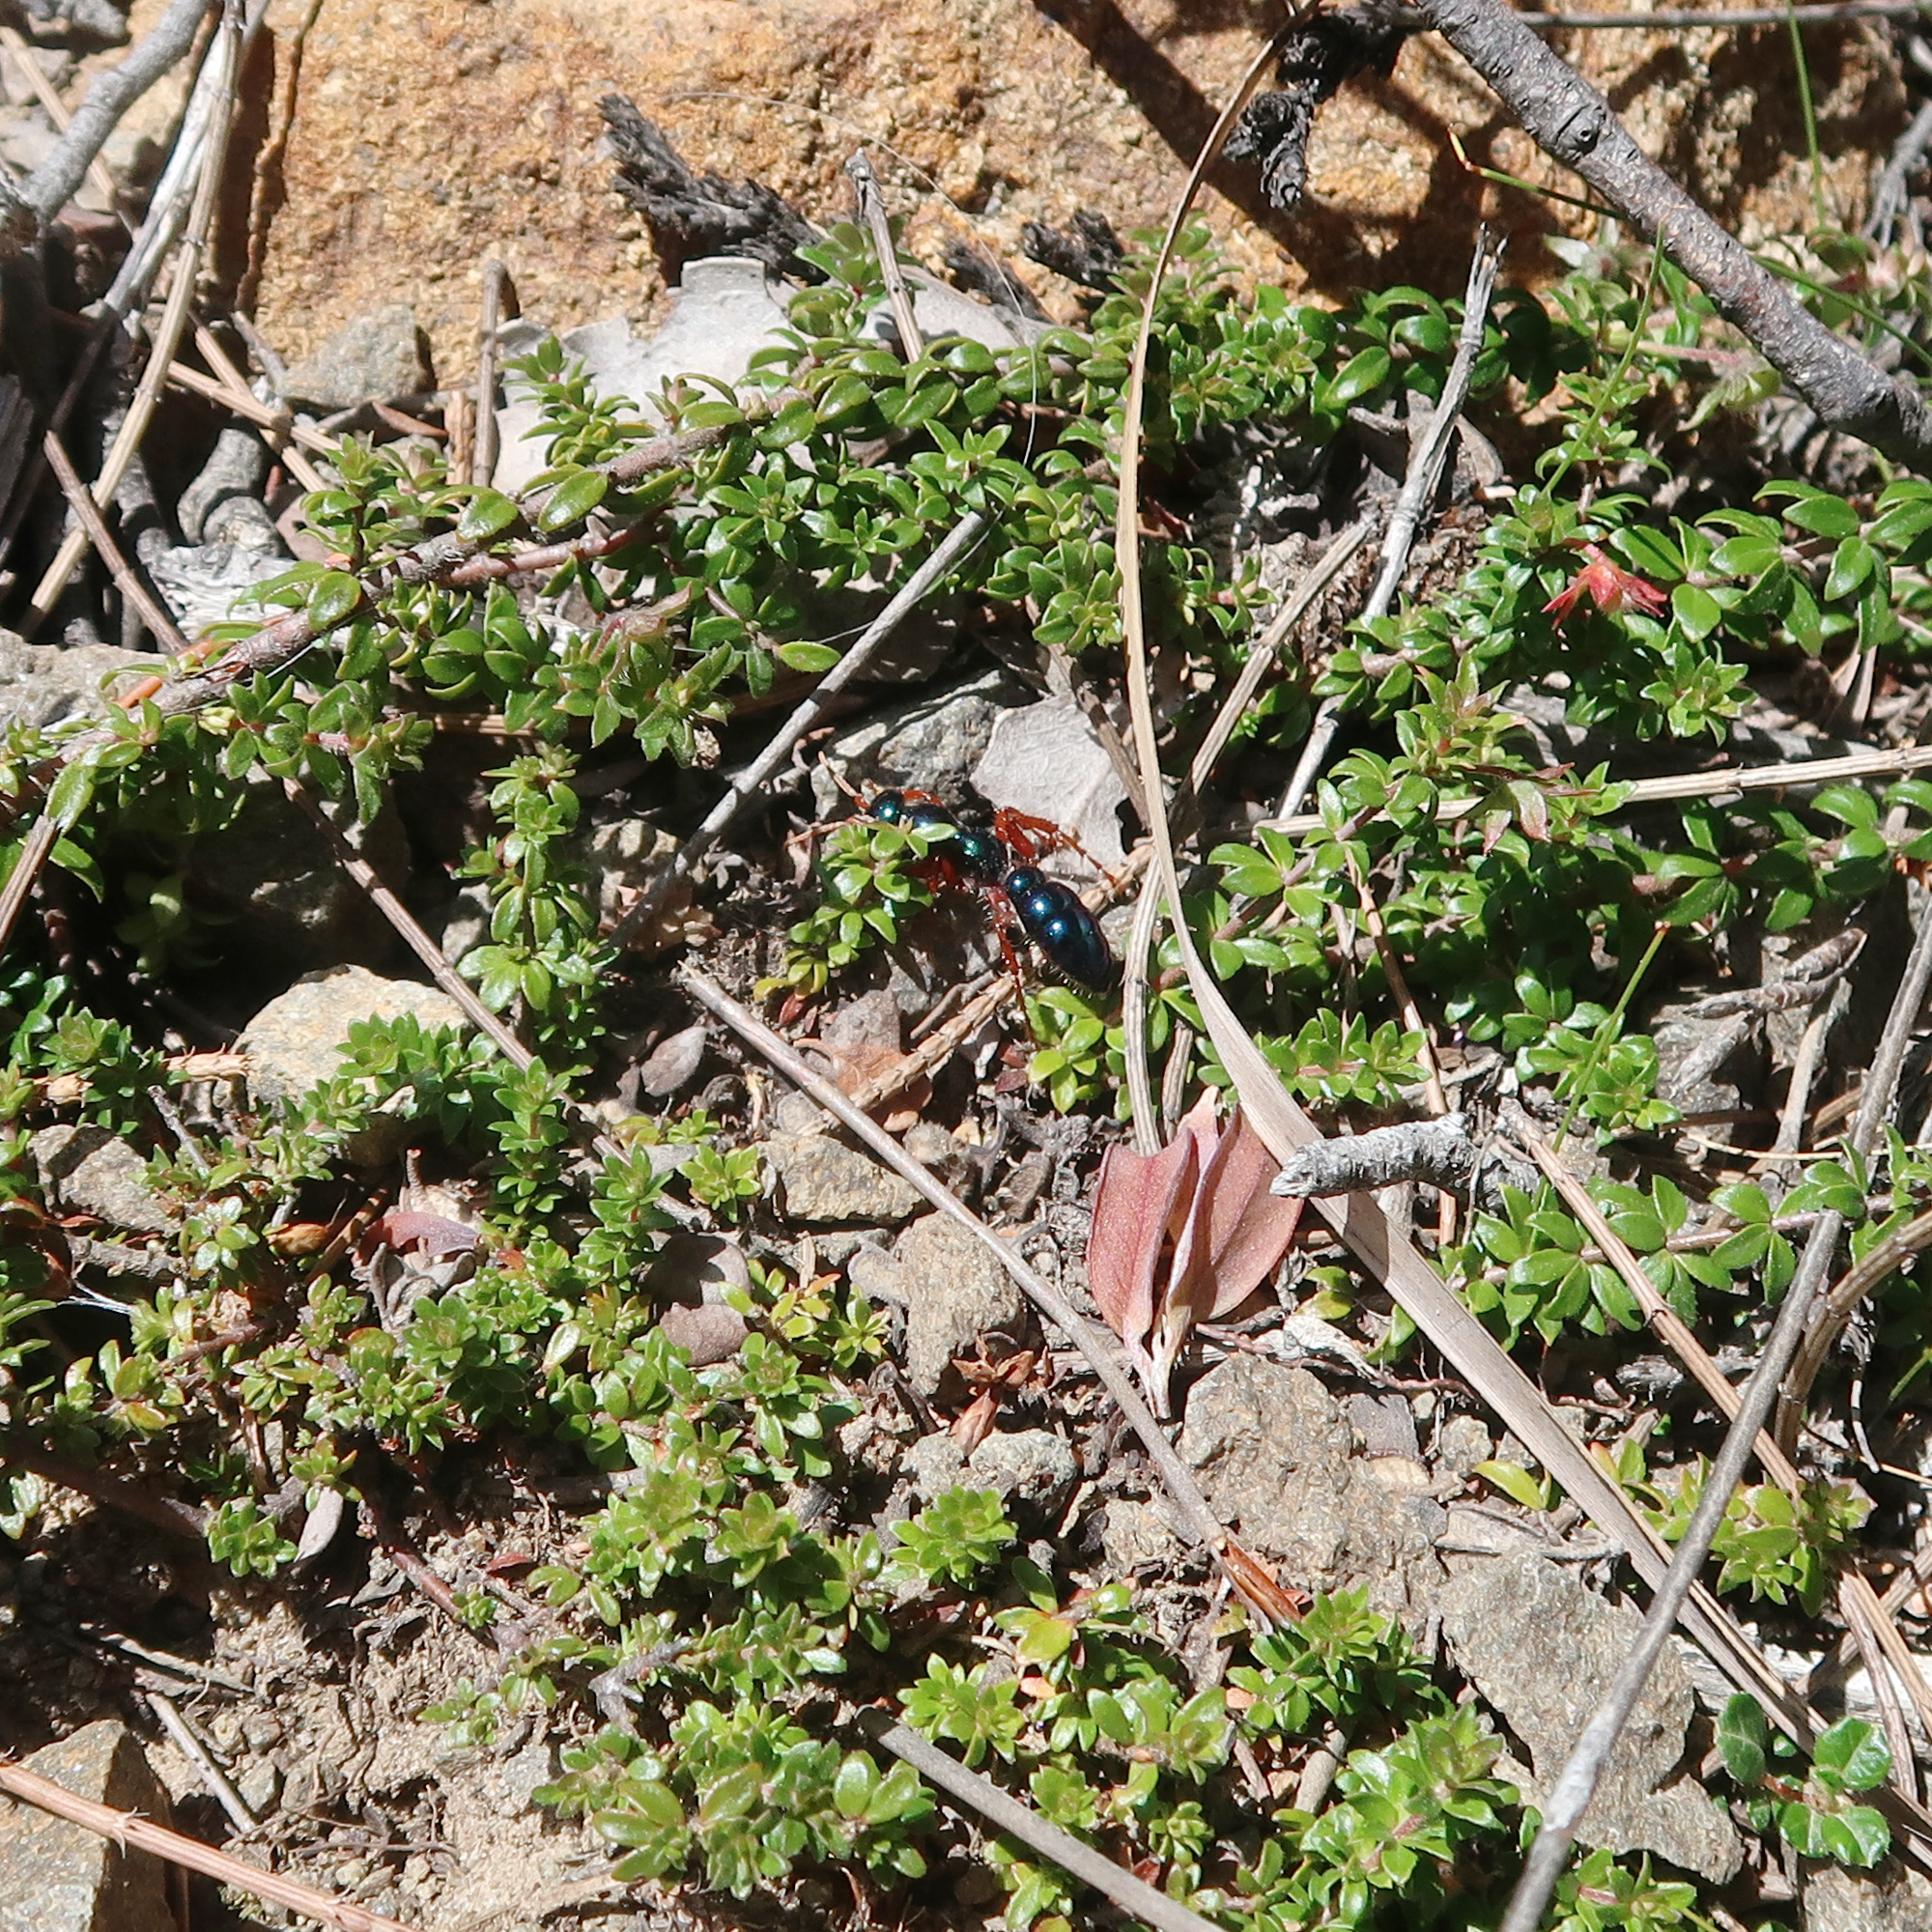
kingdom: Animalia
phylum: Arthropoda
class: Insecta
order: Hymenoptera
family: Tiphiidae
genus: Diamma
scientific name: Diamma
